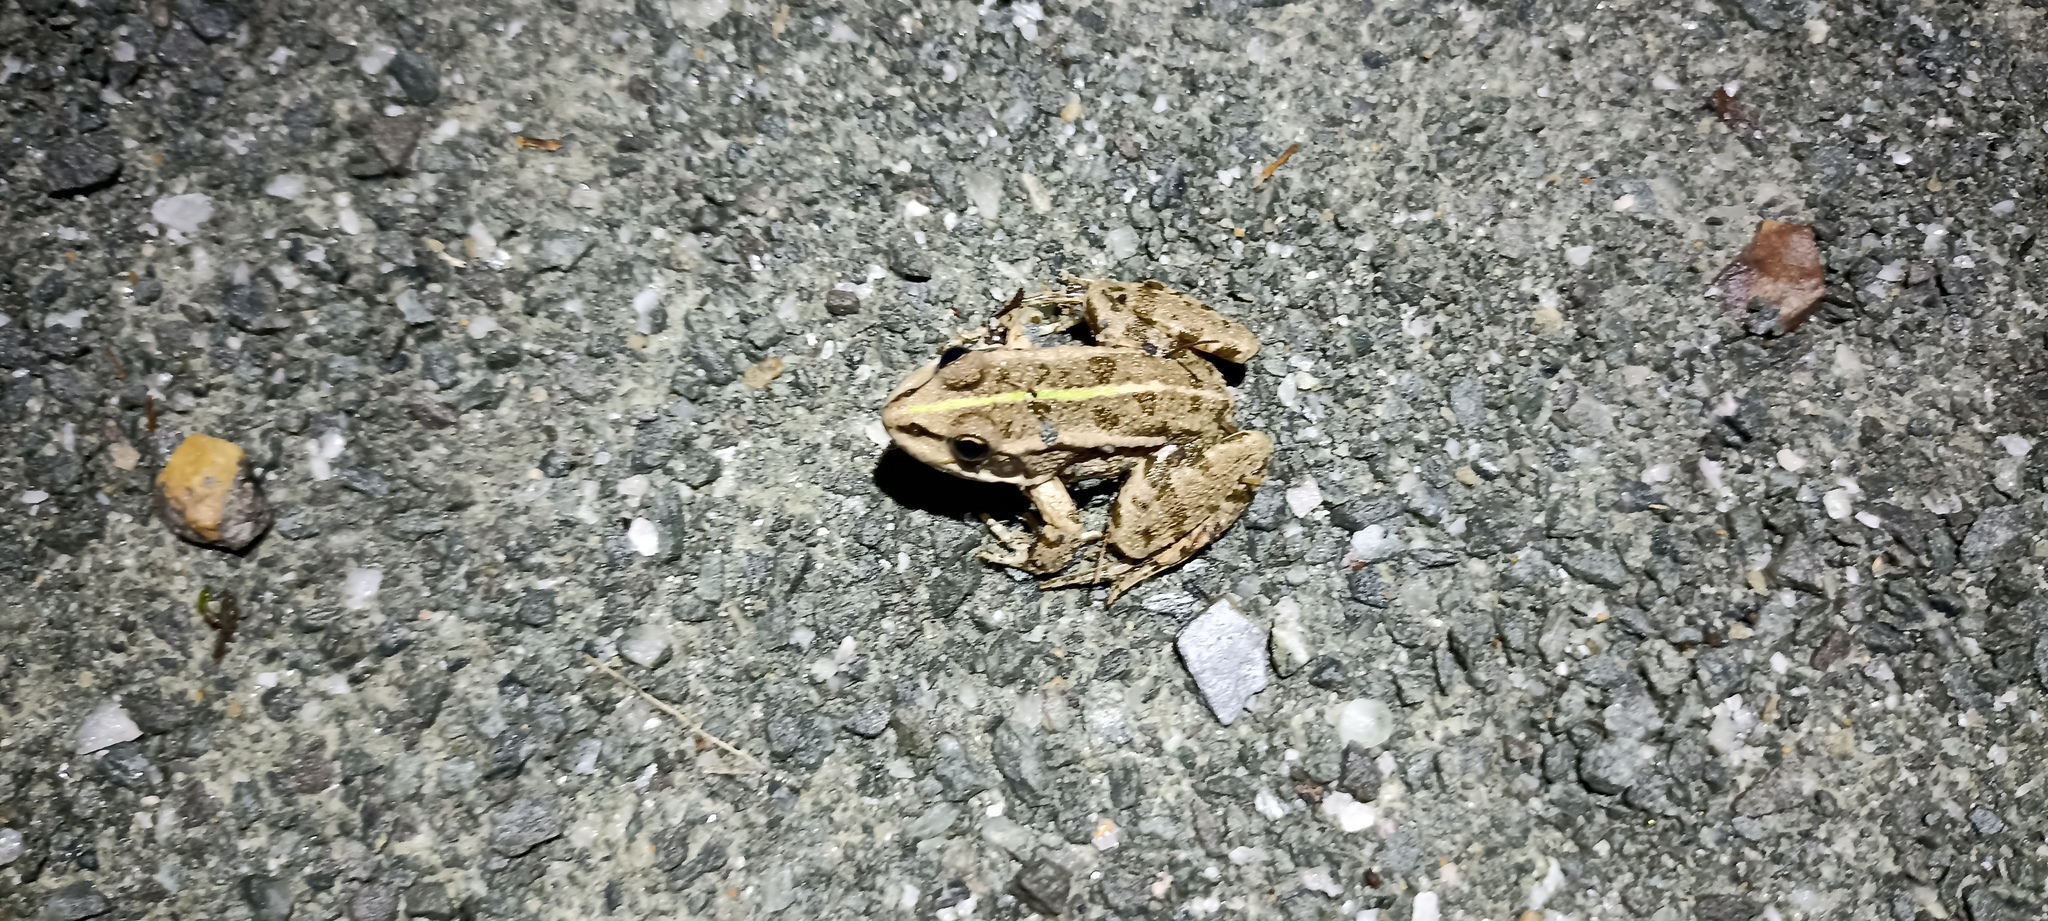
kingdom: Animalia
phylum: Chordata
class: Amphibia
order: Anura
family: Ranidae
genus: Pelophylax
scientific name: Pelophylax
